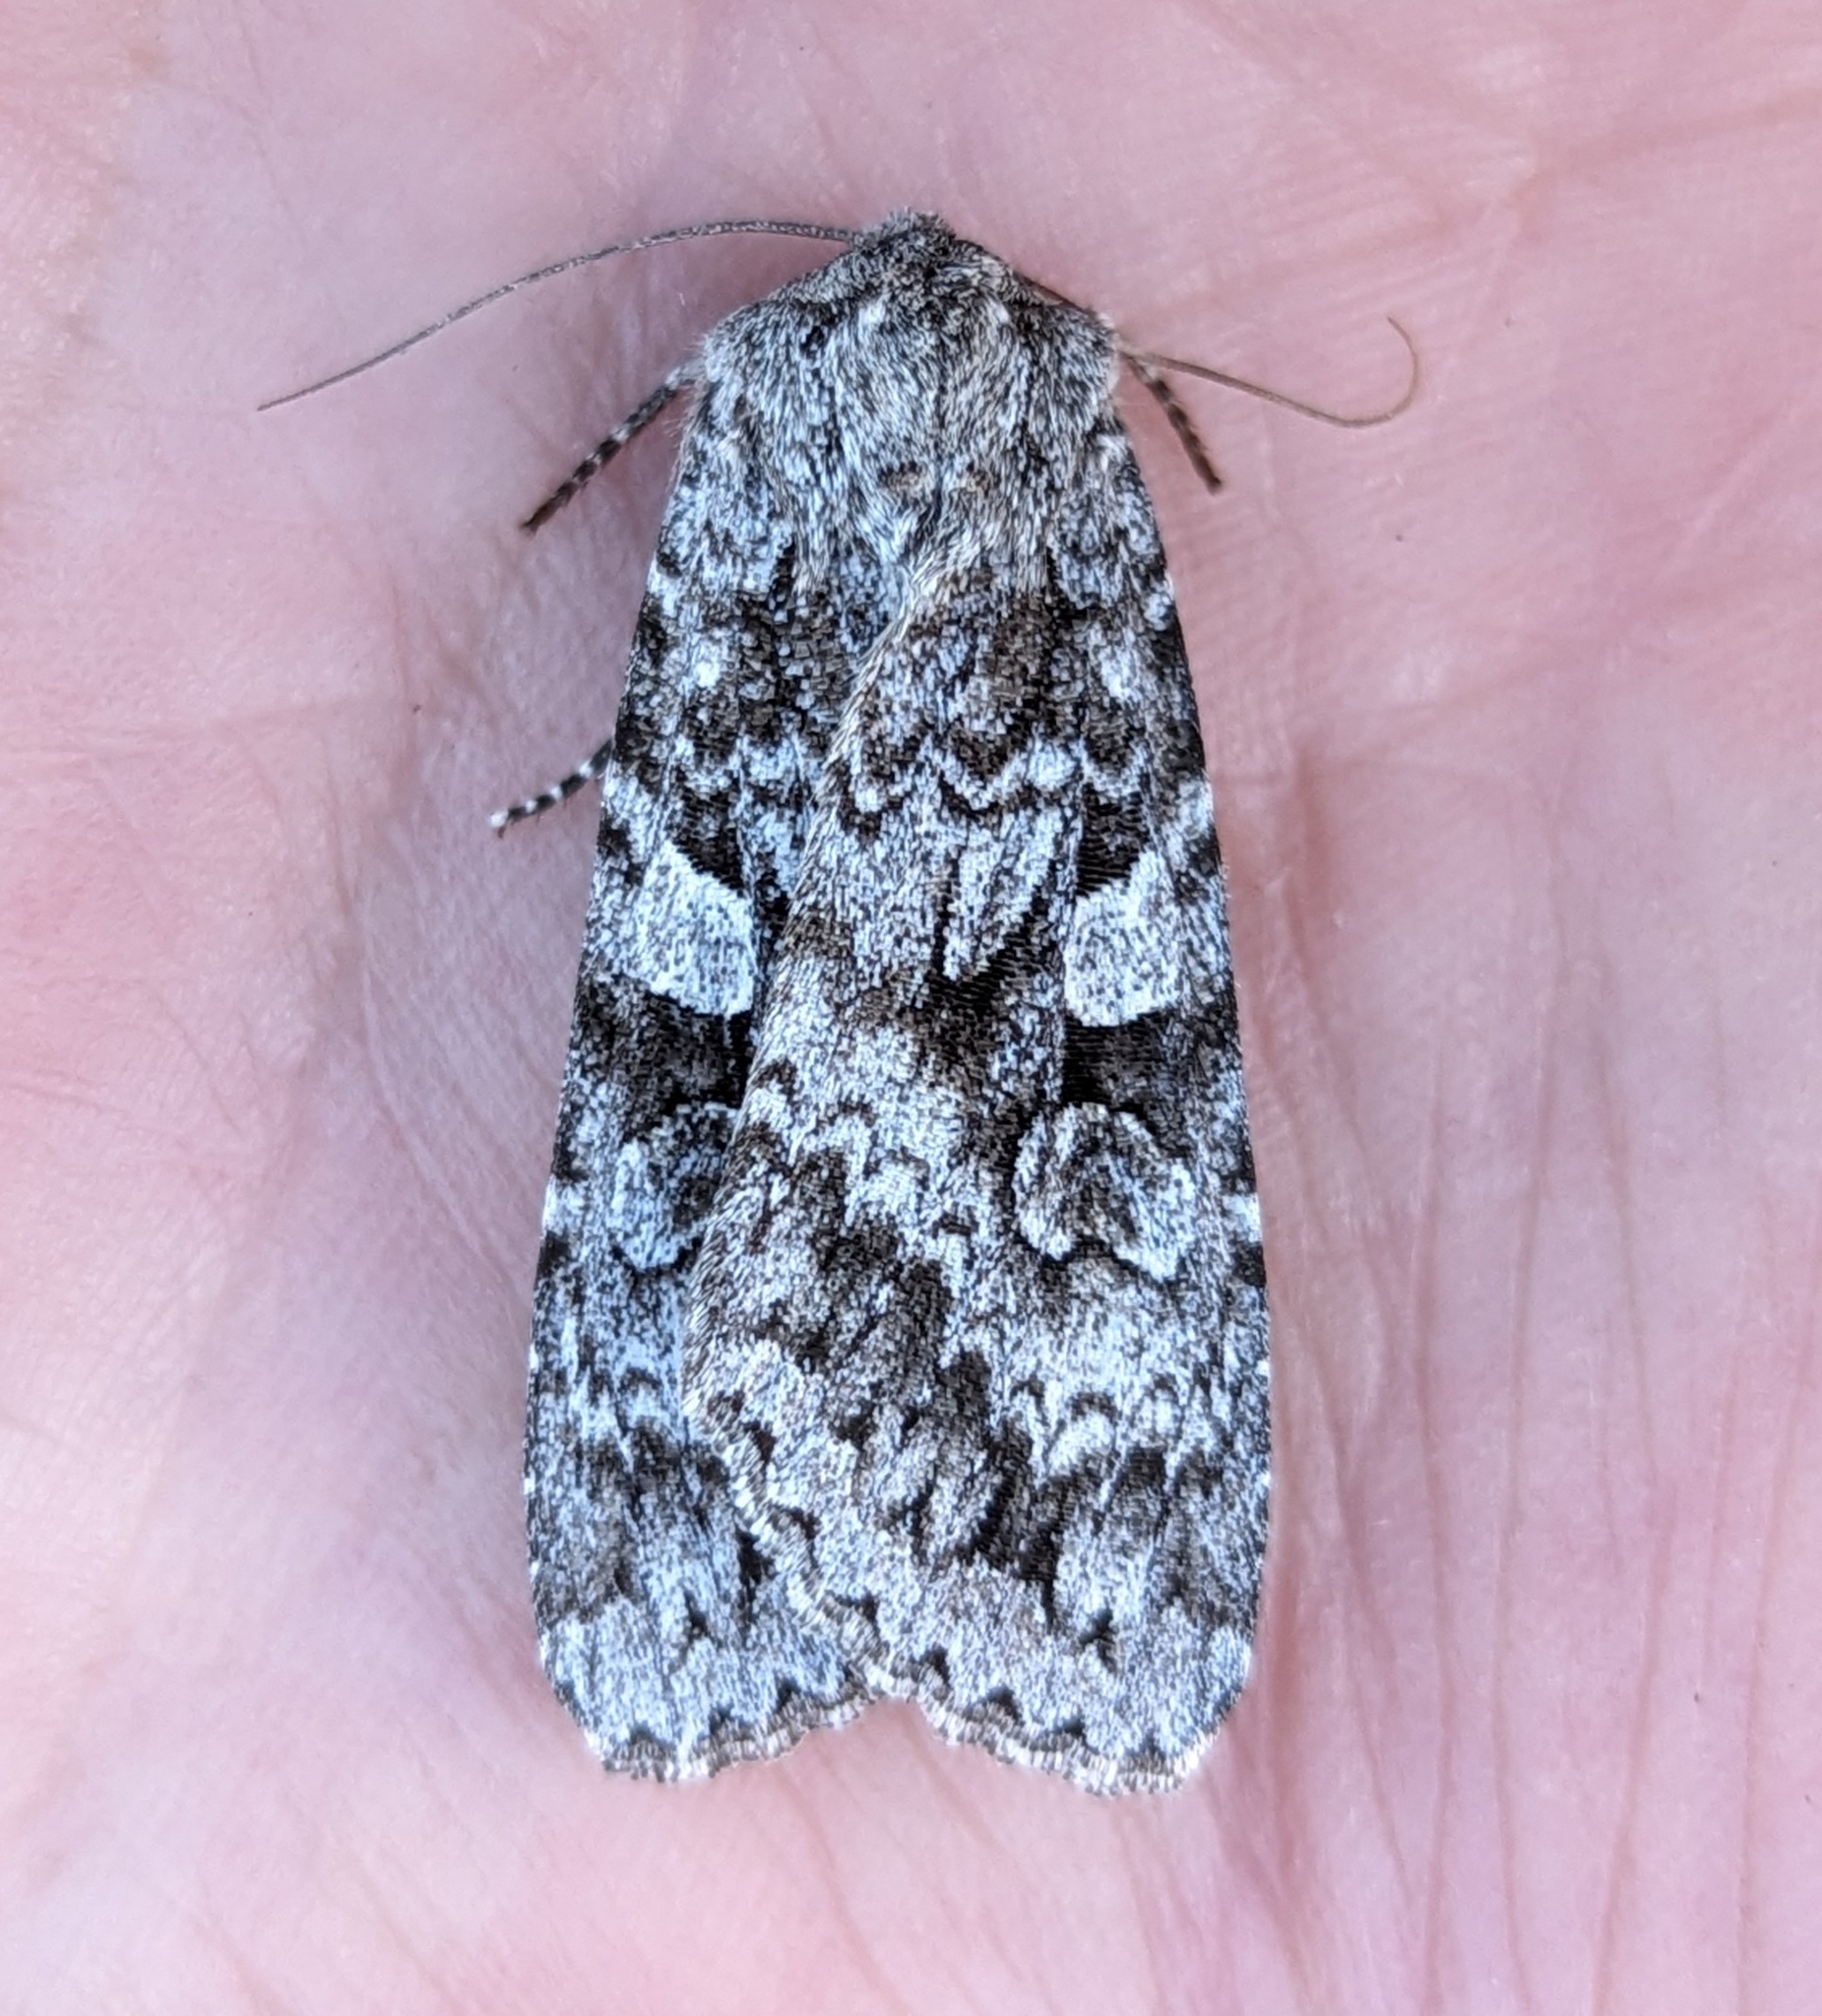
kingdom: Animalia
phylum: Arthropoda
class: Insecta
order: Lepidoptera
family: Noctuidae
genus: Eurois
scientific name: Eurois occulta
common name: Great brocade
